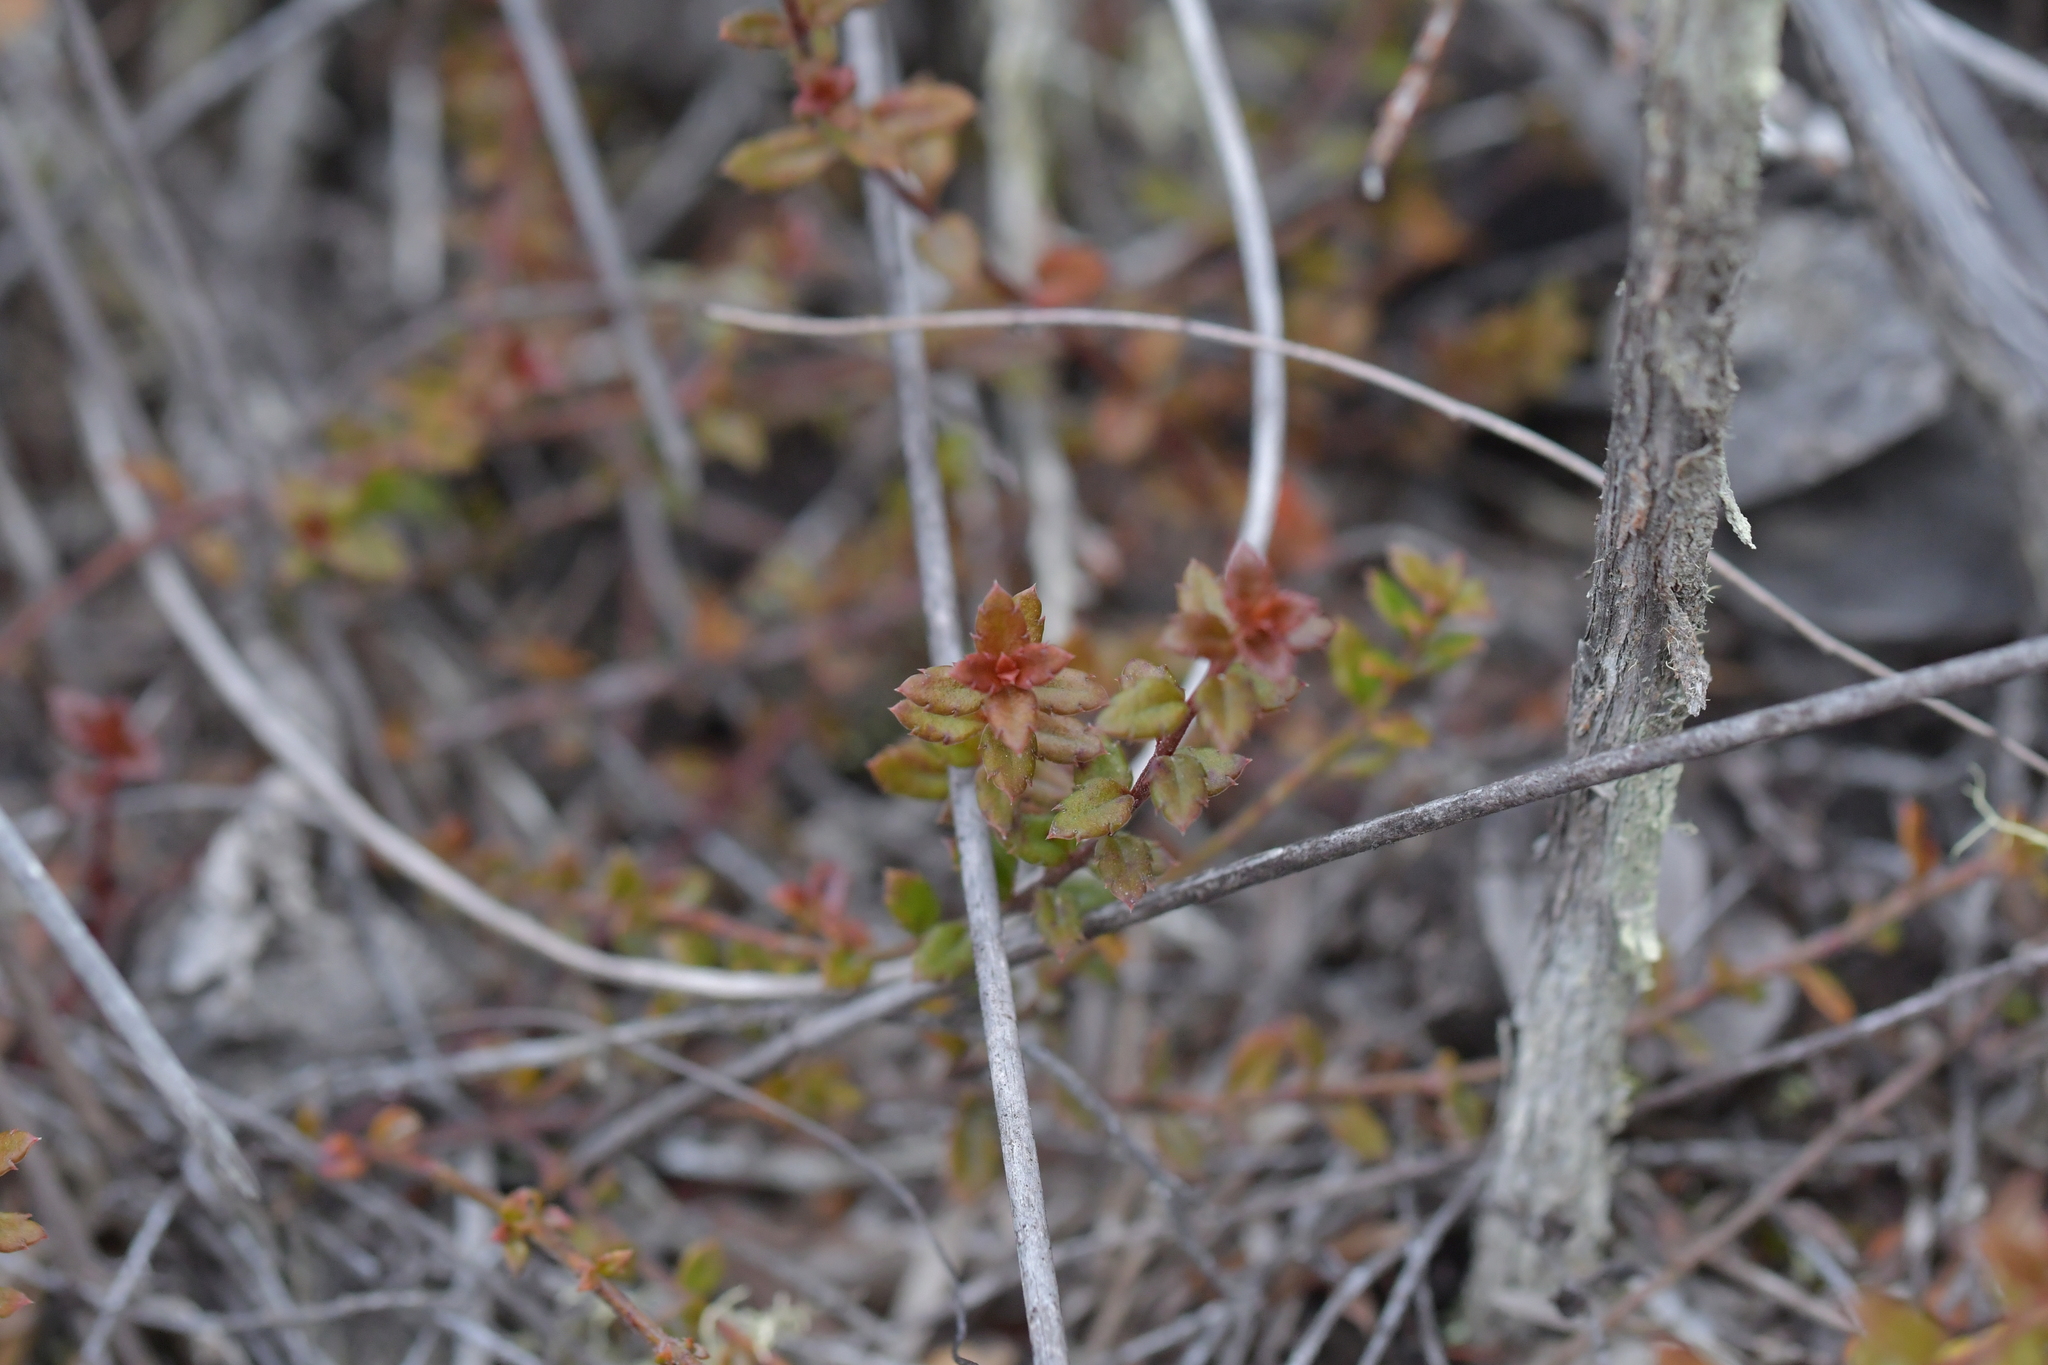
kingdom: Plantae
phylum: Tracheophyta
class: Magnoliopsida
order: Saxifragales
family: Haloragaceae
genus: Gonocarpus
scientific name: Gonocarpus incanus
